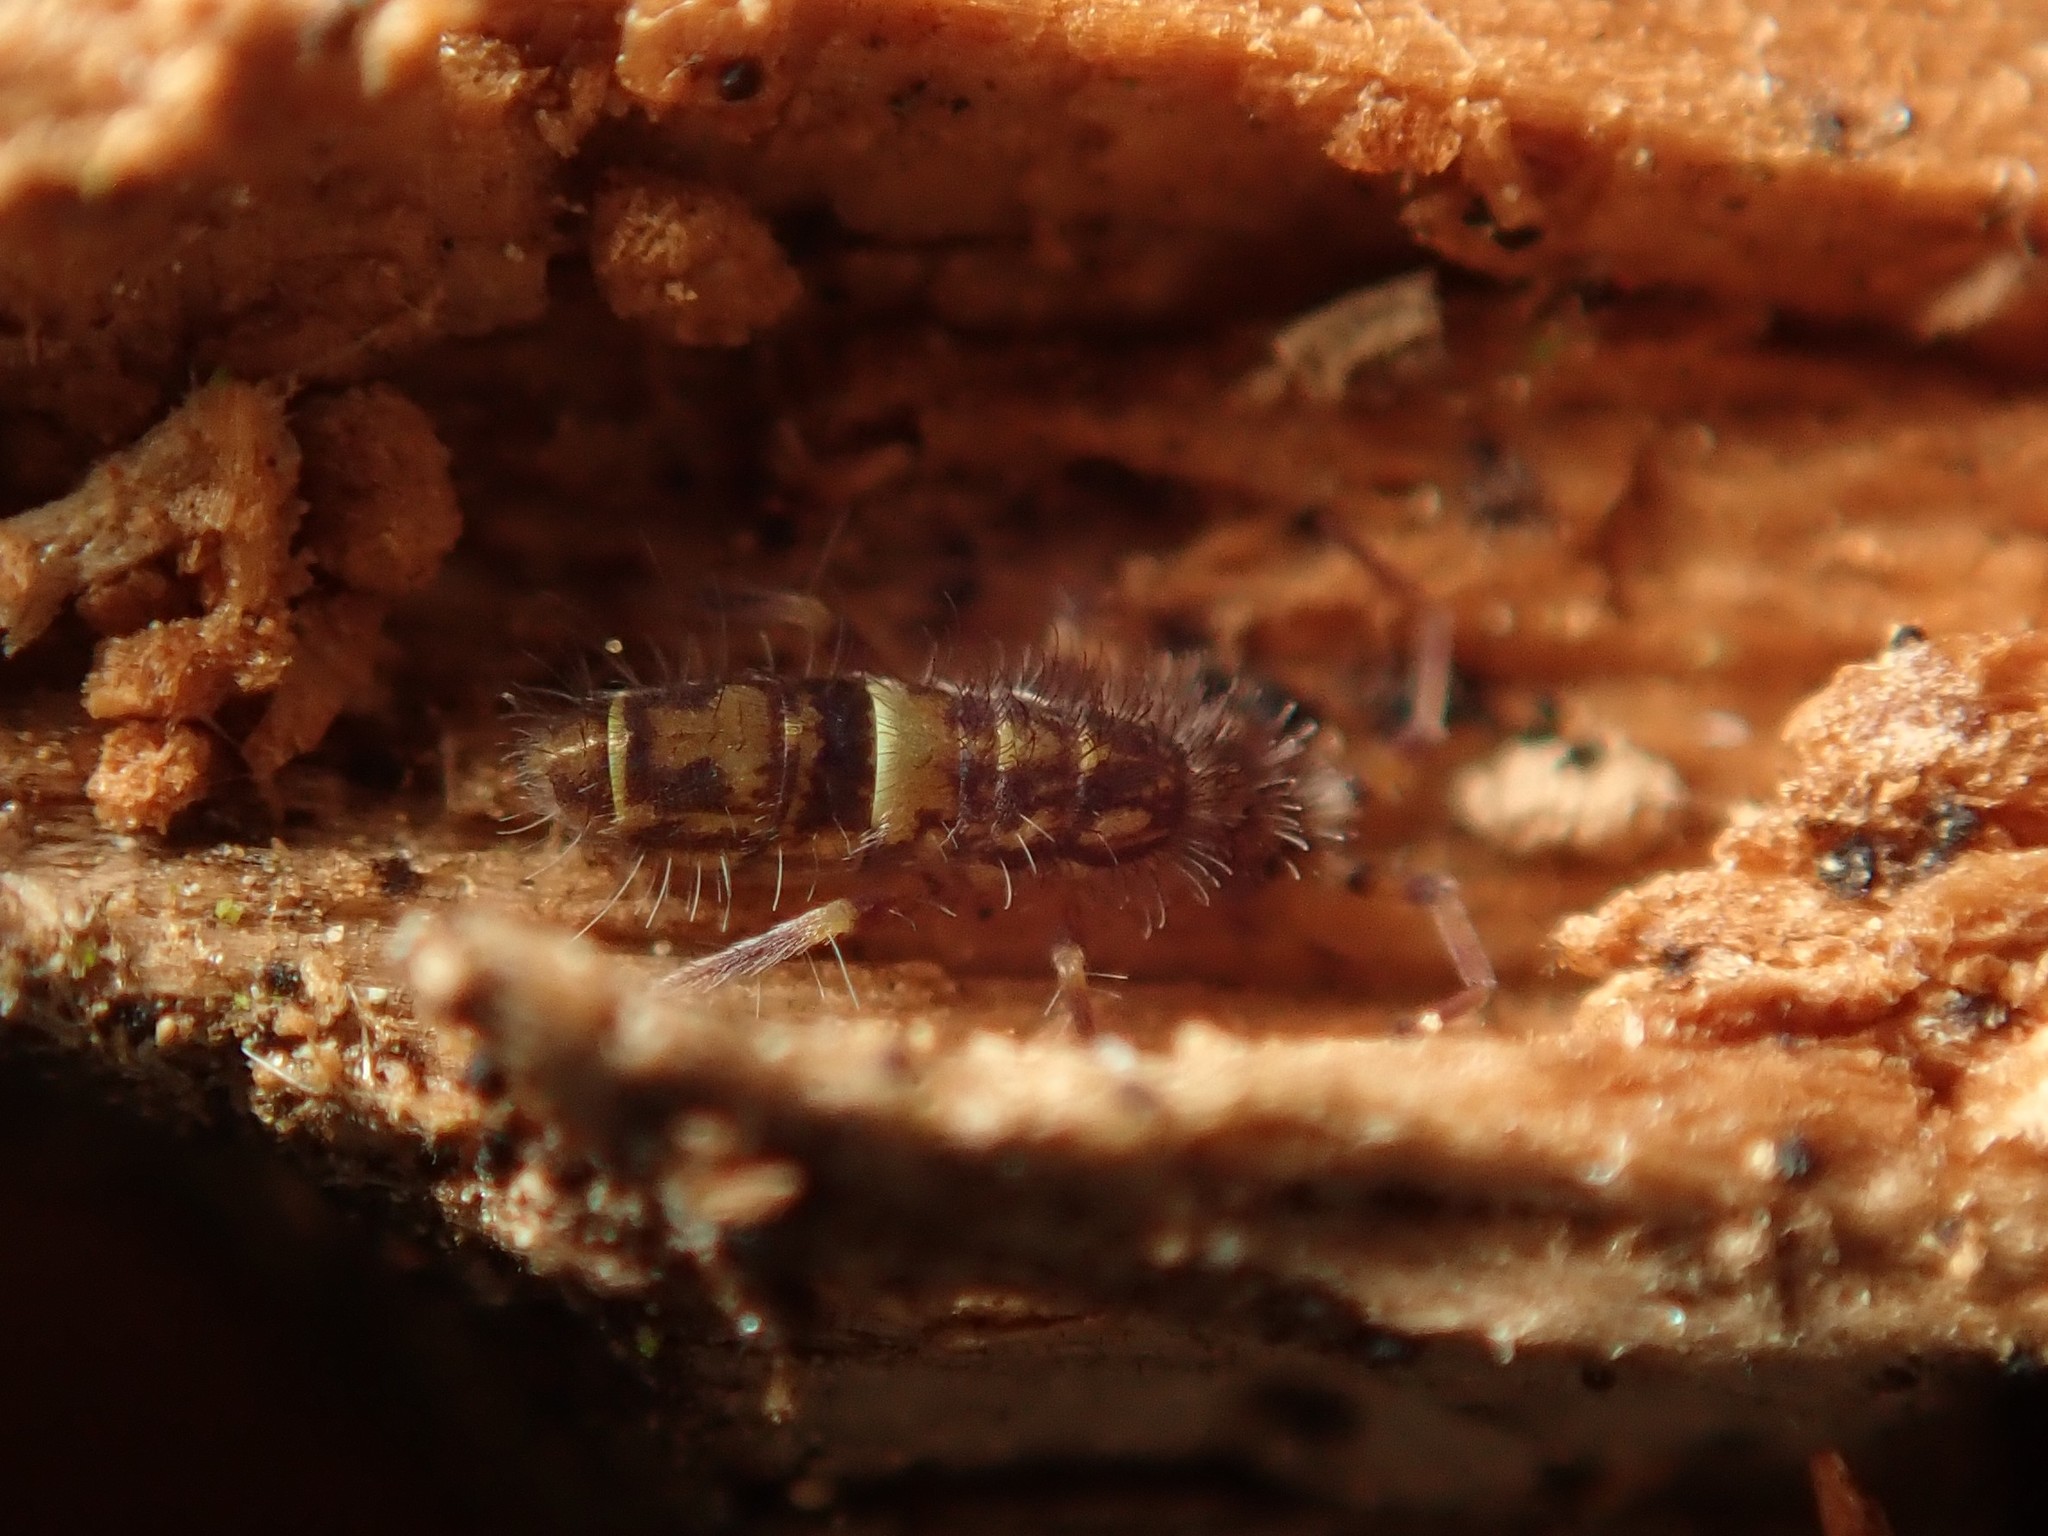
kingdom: Animalia
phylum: Arthropoda
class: Collembola
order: Entomobryomorpha
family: Orchesellidae
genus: Orchesella
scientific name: Orchesella cincta
